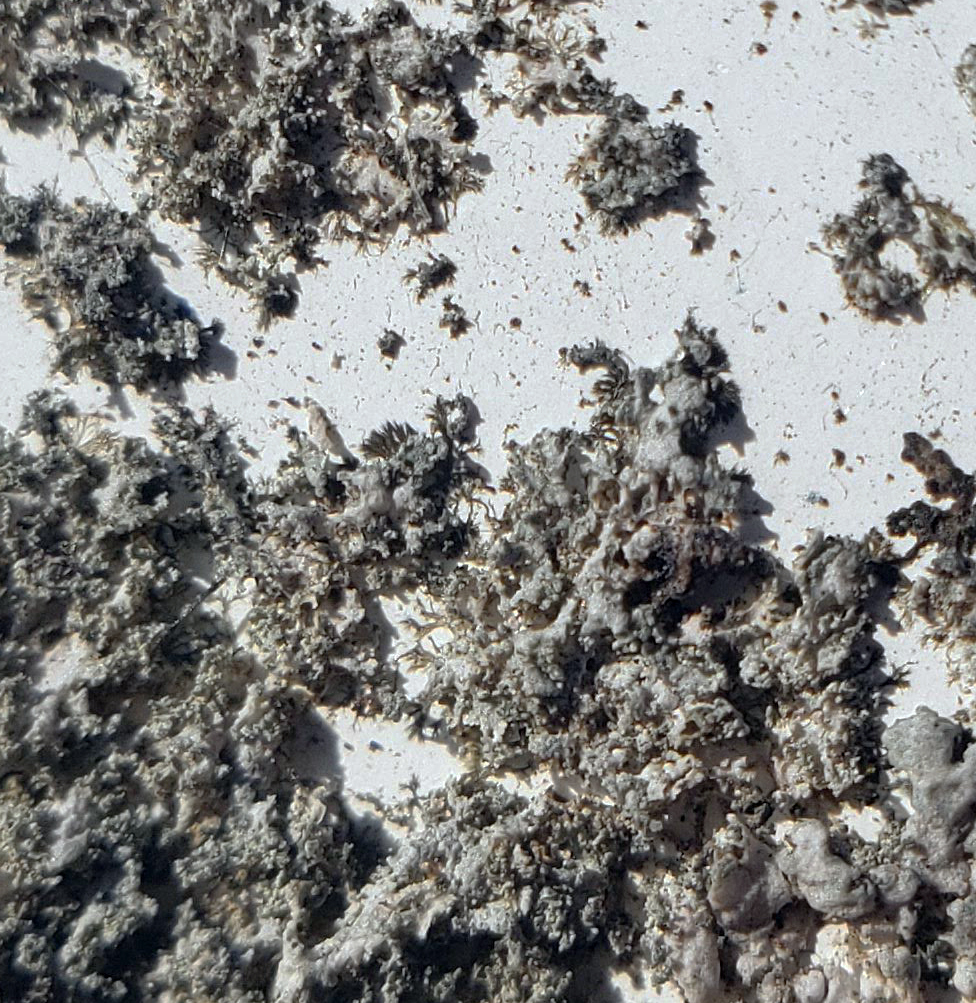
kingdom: Fungi
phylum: Ascomycota
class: Lecanoromycetes
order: Caliciales
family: Physciaceae
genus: Physcia
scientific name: Physcia millegrana
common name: Rosette lichen
